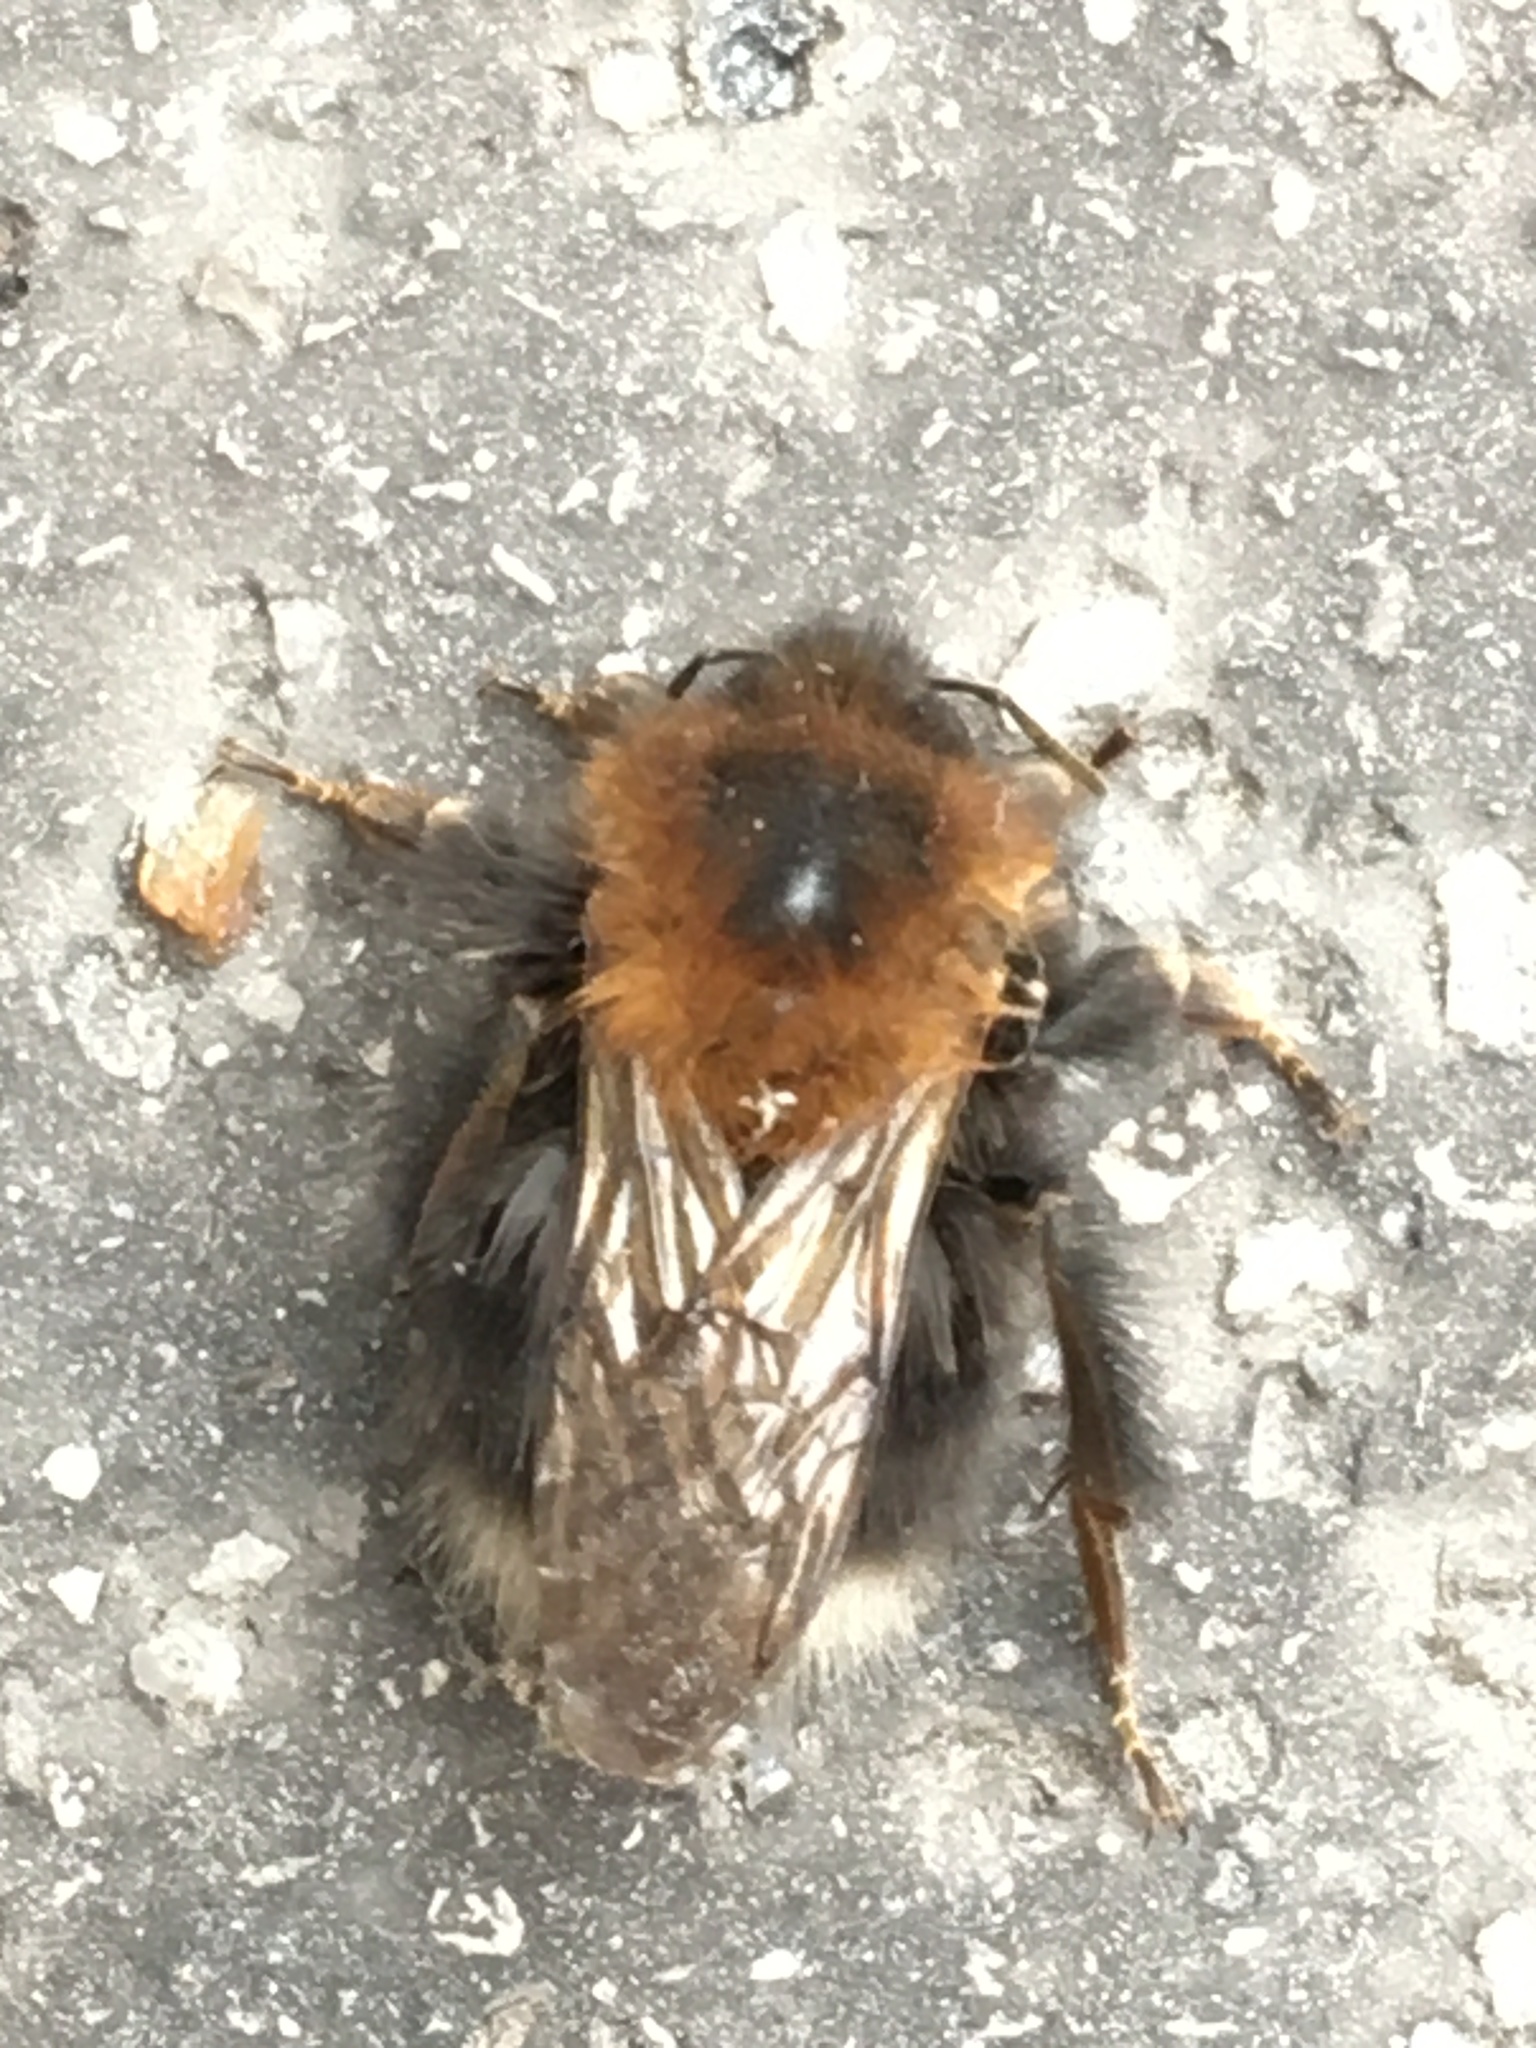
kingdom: Animalia
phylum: Arthropoda
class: Insecta
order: Hymenoptera
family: Apidae
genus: Bombus
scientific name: Bombus hypnorum
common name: New garden bumblebee
